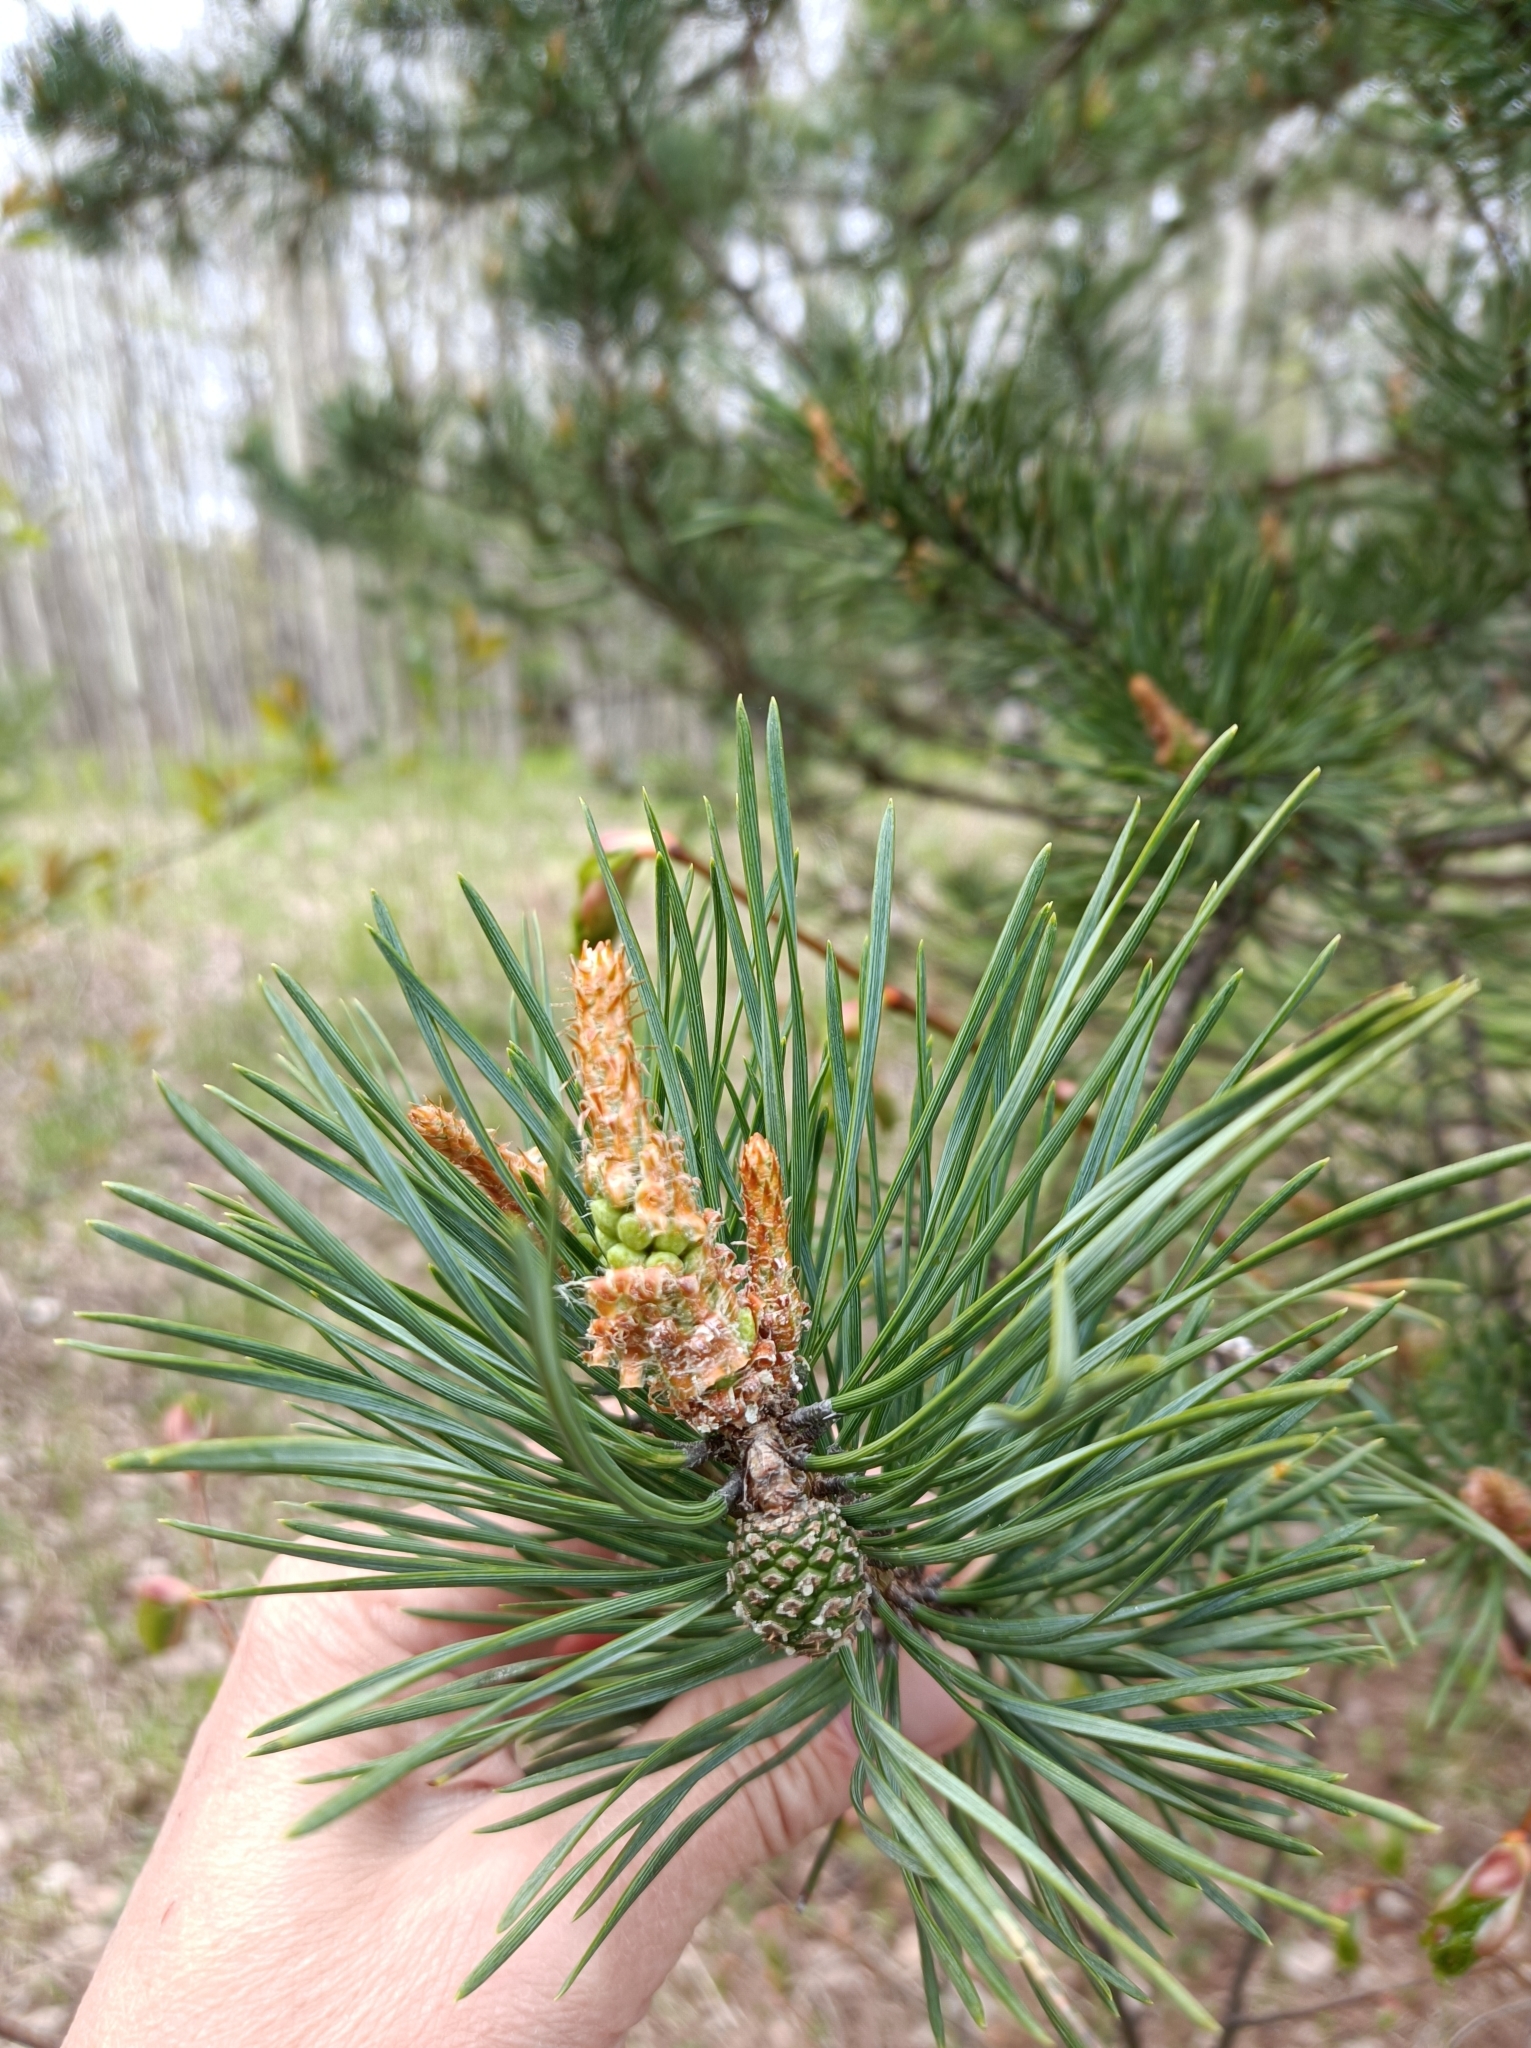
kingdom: Plantae
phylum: Tracheophyta
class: Pinopsida
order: Pinales
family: Pinaceae
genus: Pinus
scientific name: Pinus sylvestris
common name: Scots pine
